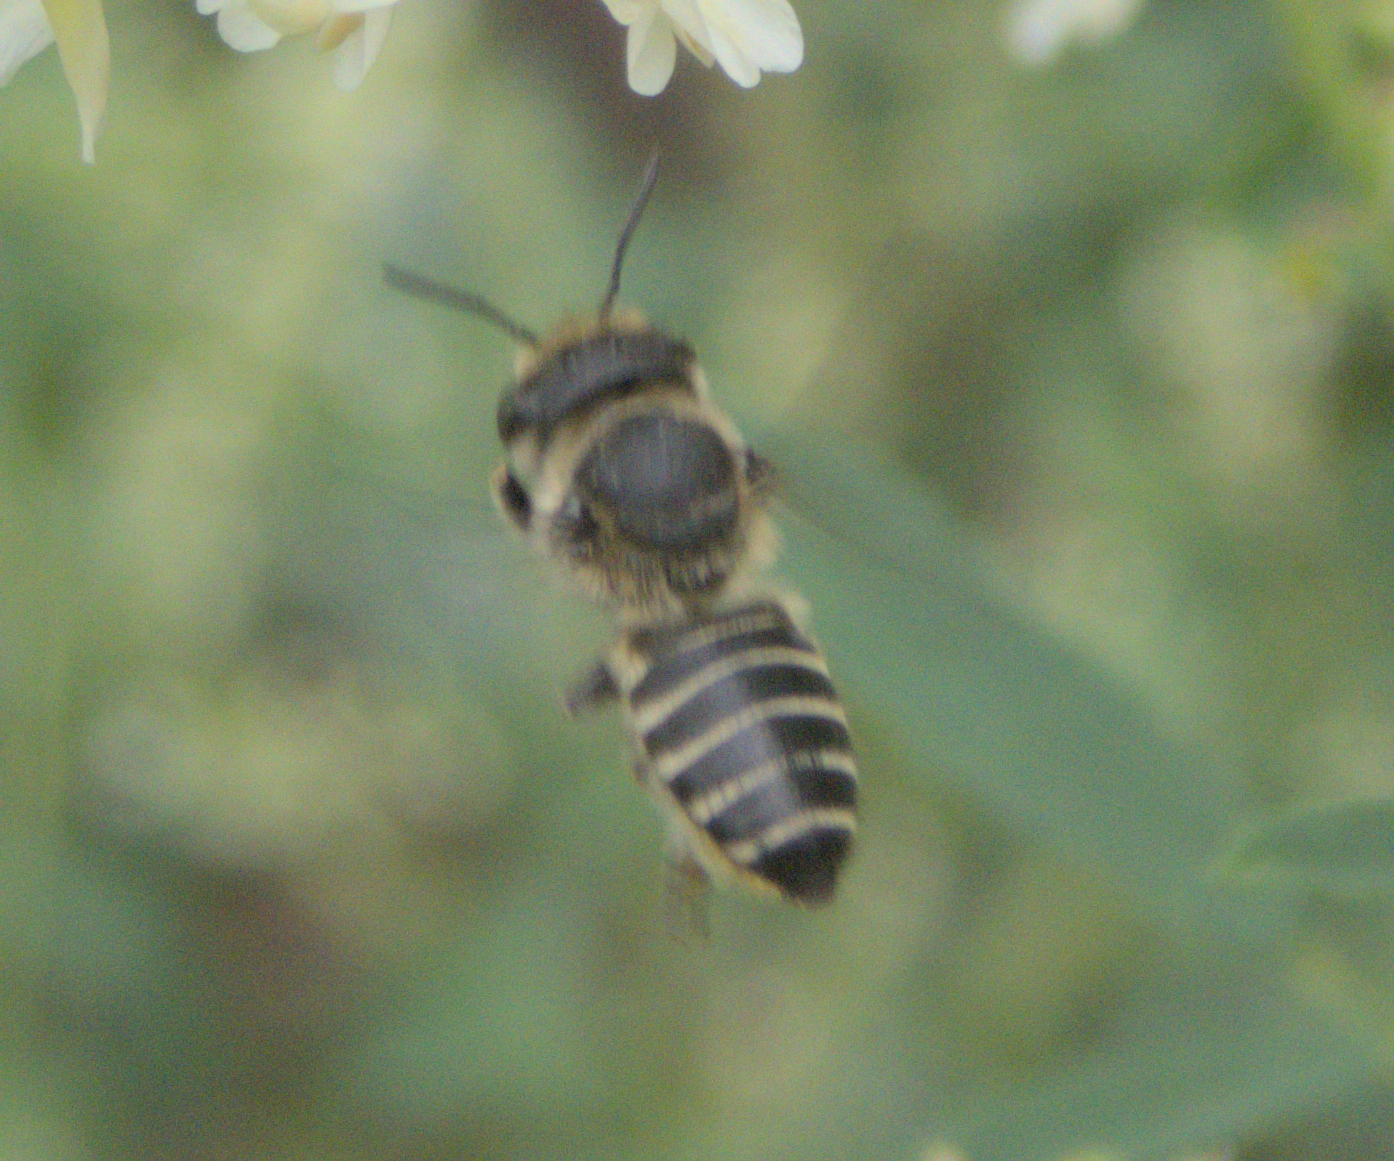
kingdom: Animalia
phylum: Arthropoda
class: Insecta
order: Hymenoptera
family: Megachilidae
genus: Megachile
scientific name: Megachile rotundata
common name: Alfalfa leafcutting bee
